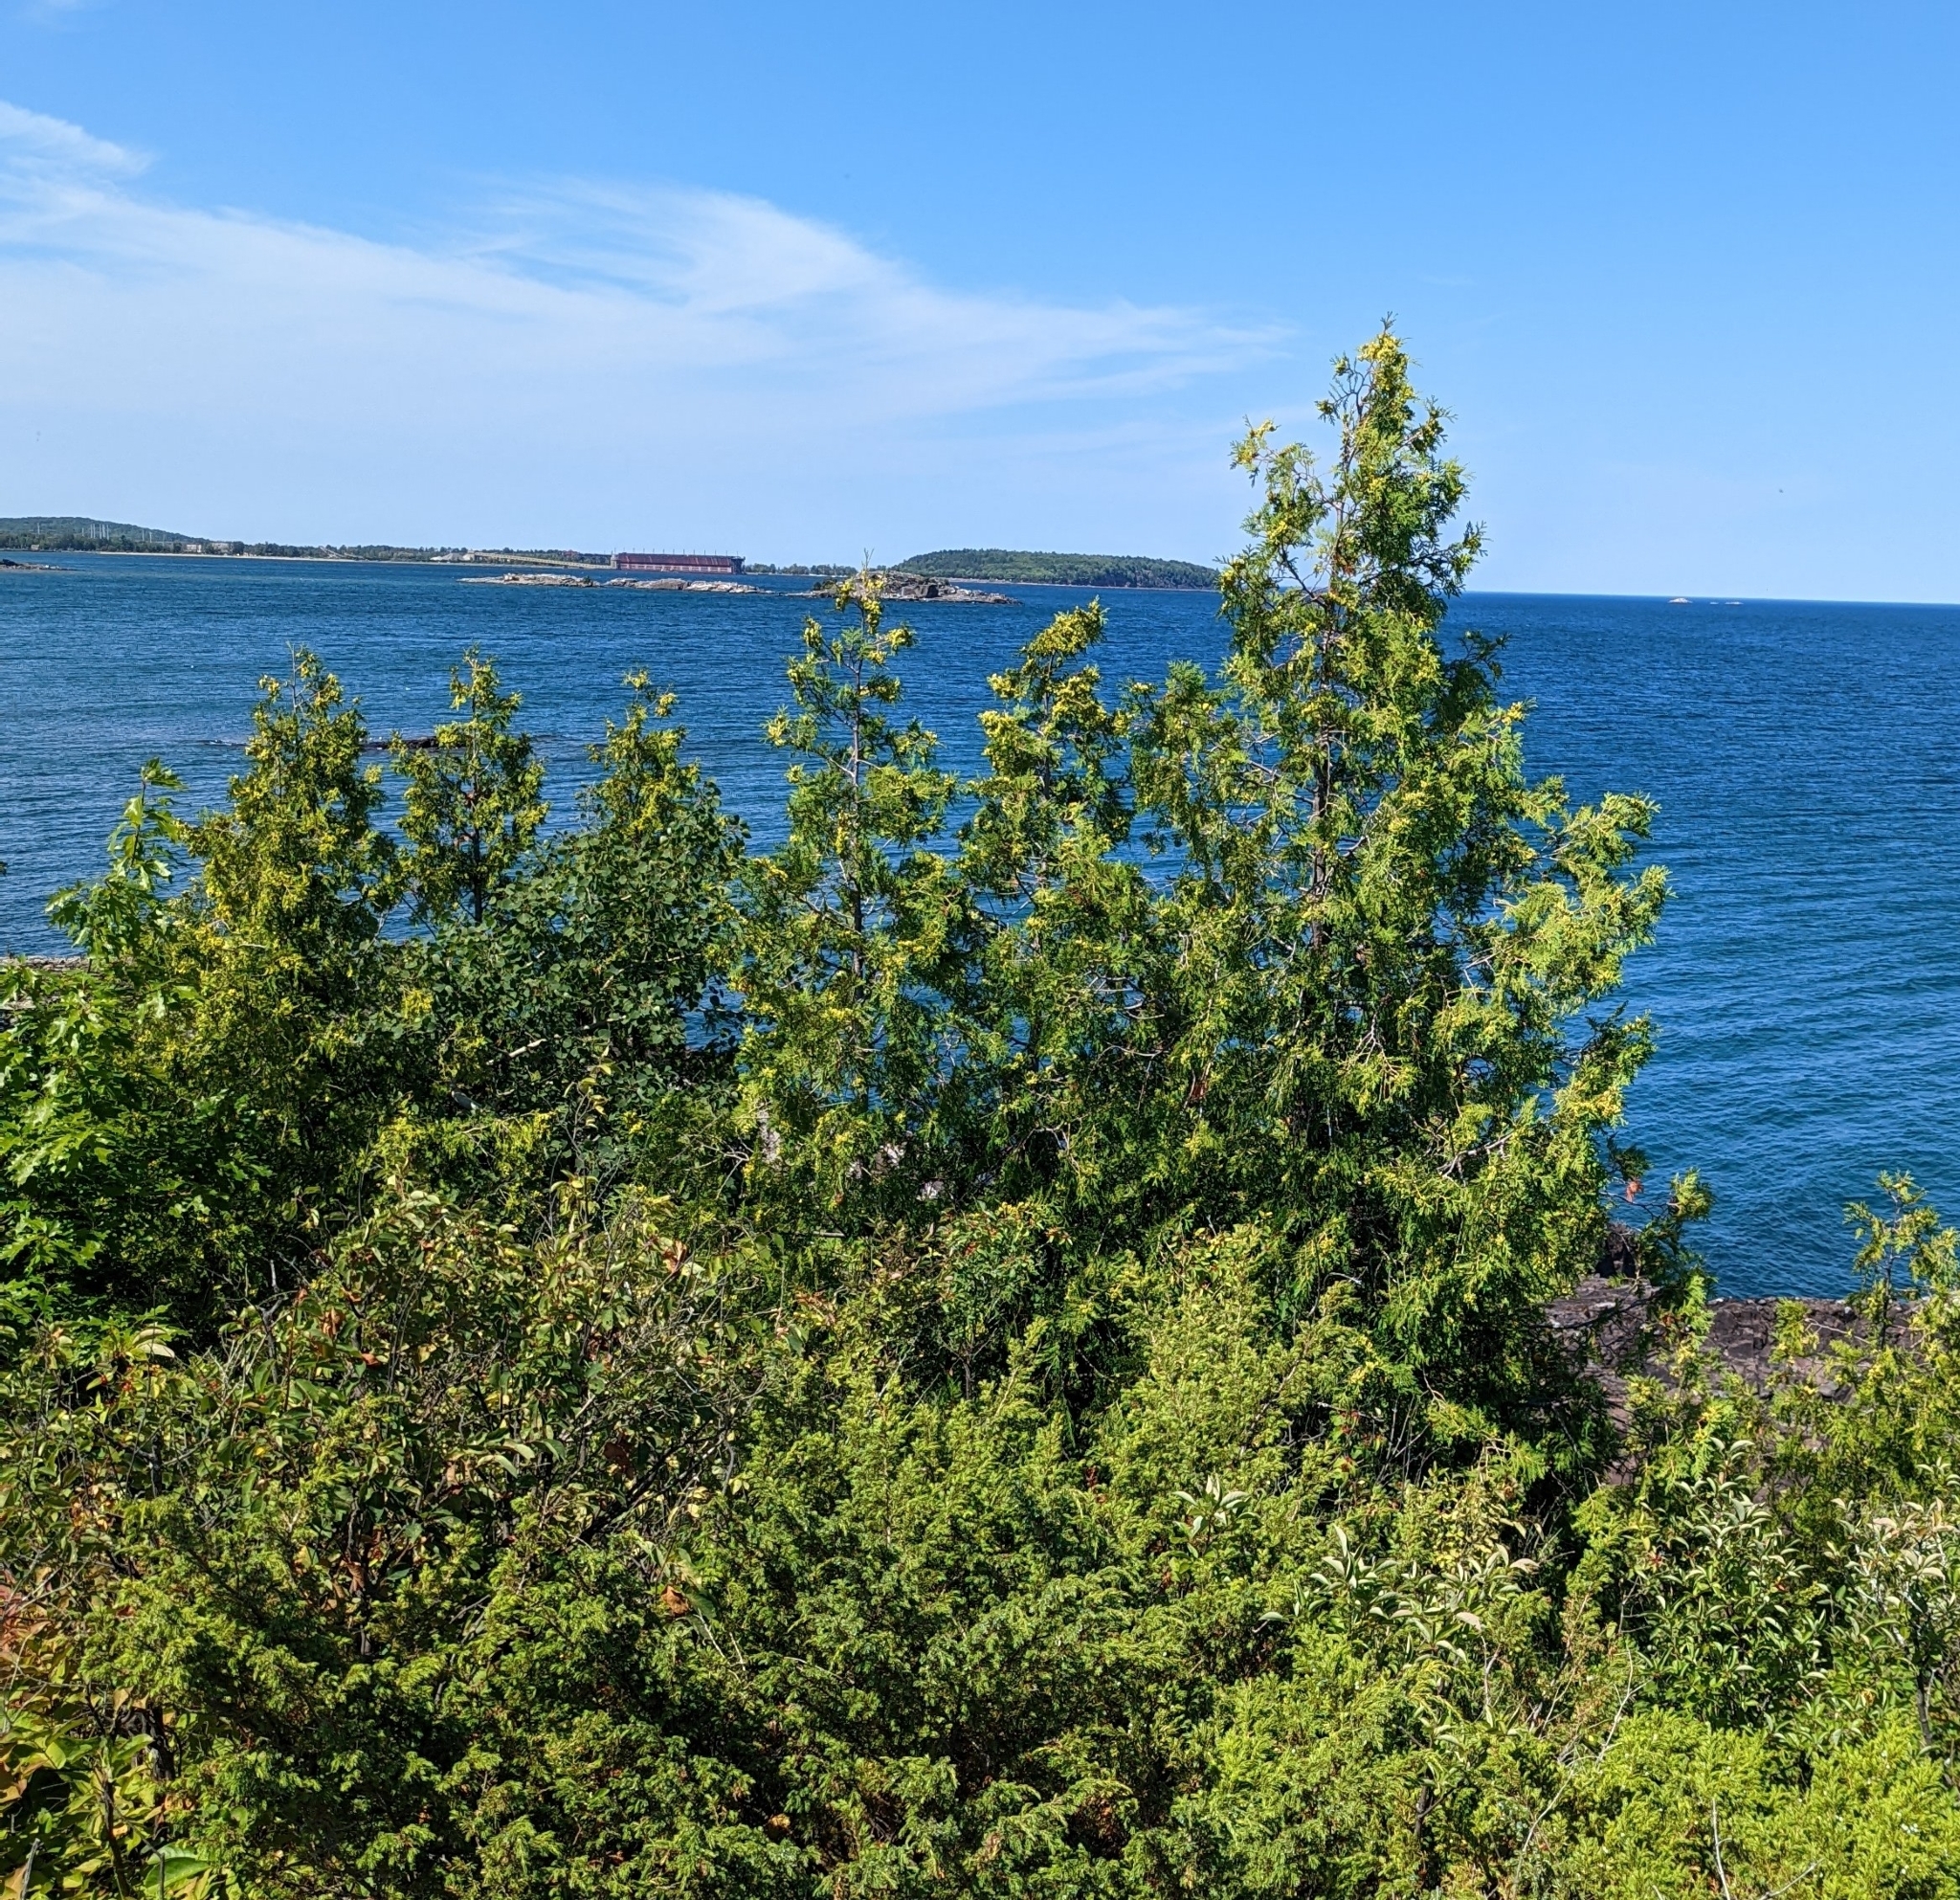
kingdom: Plantae
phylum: Tracheophyta
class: Pinopsida
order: Pinales
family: Cupressaceae
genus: Thuja
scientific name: Thuja occidentalis
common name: Northern white-cedar
